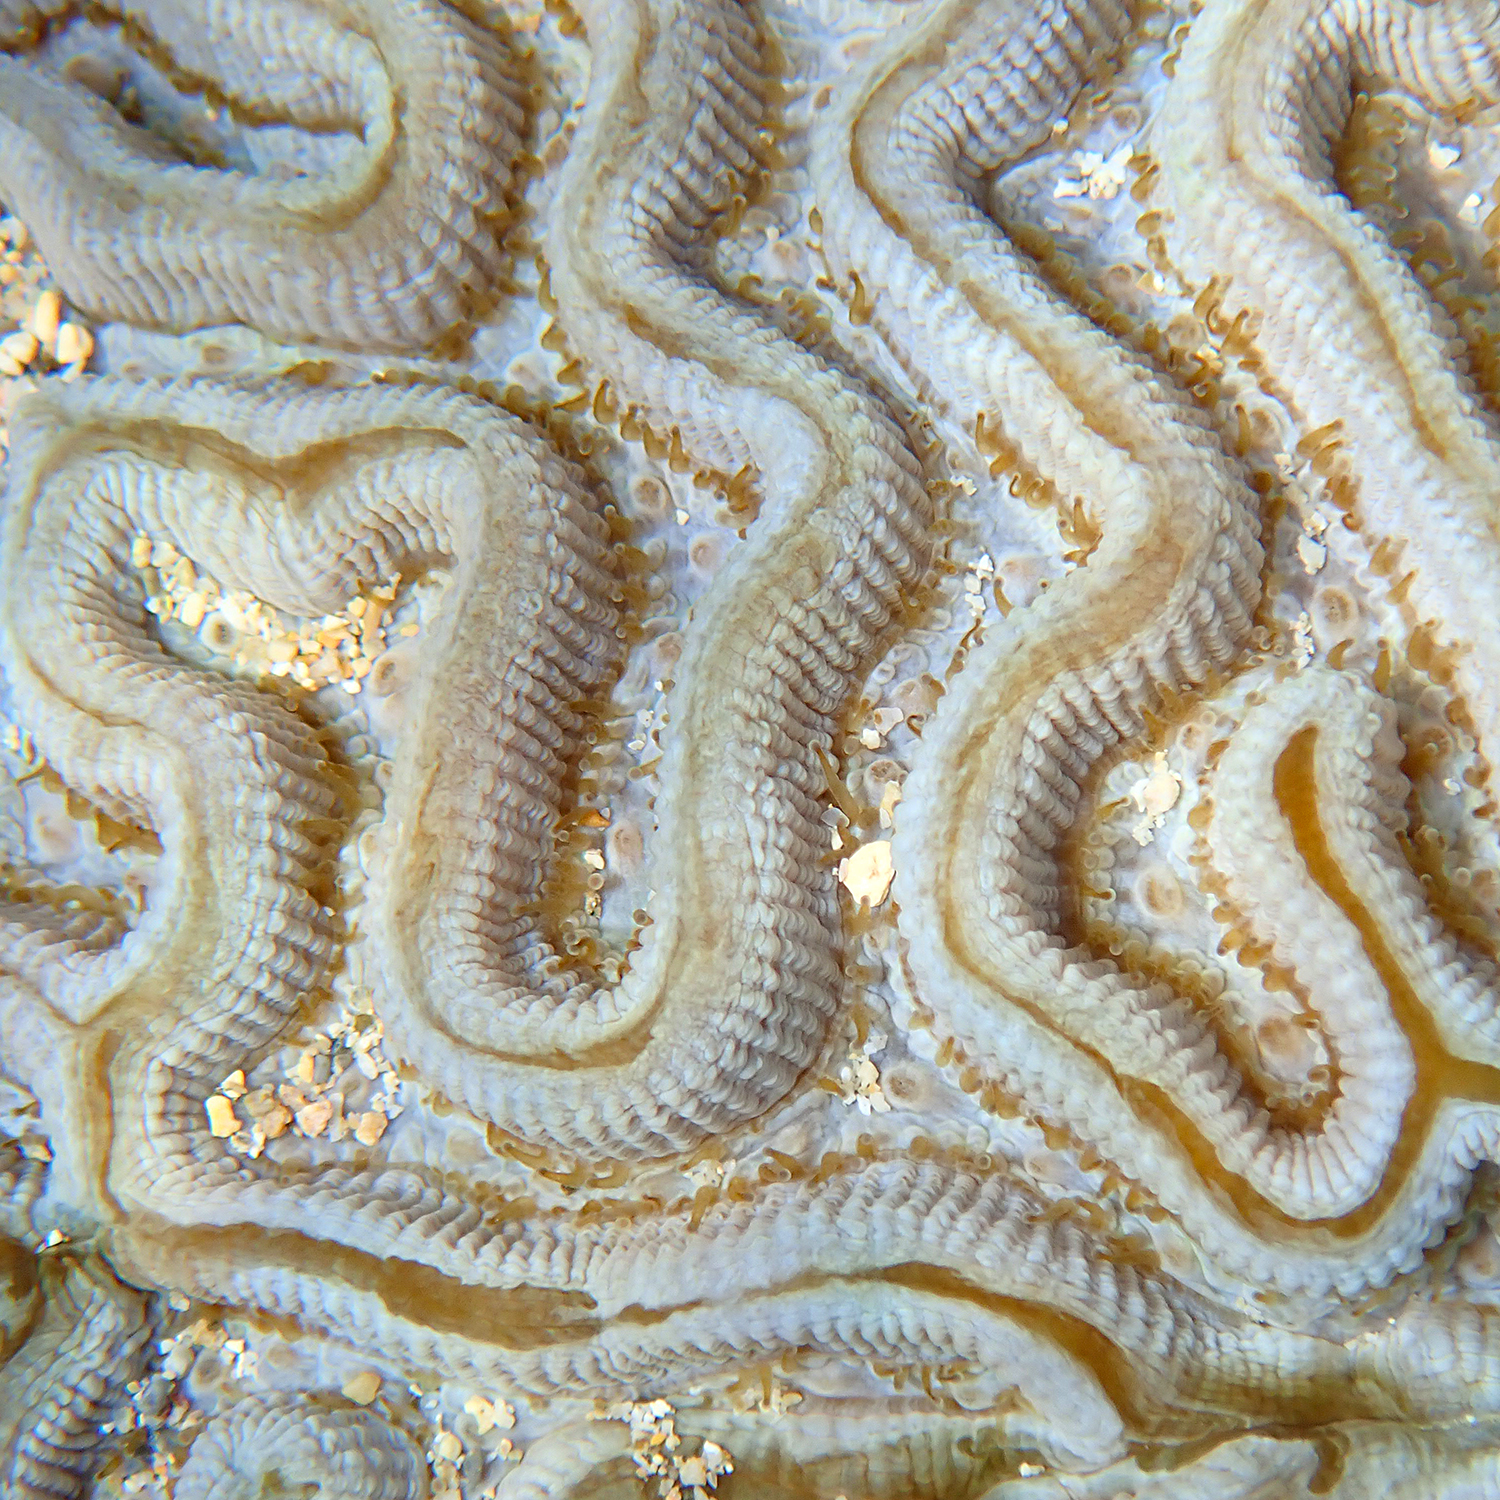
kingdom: Animalia
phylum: Cnidaria
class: Anthozoa
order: Scleractinia
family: Merulinidae
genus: Paragoniastrea
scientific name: Paragoniastrea australensis
